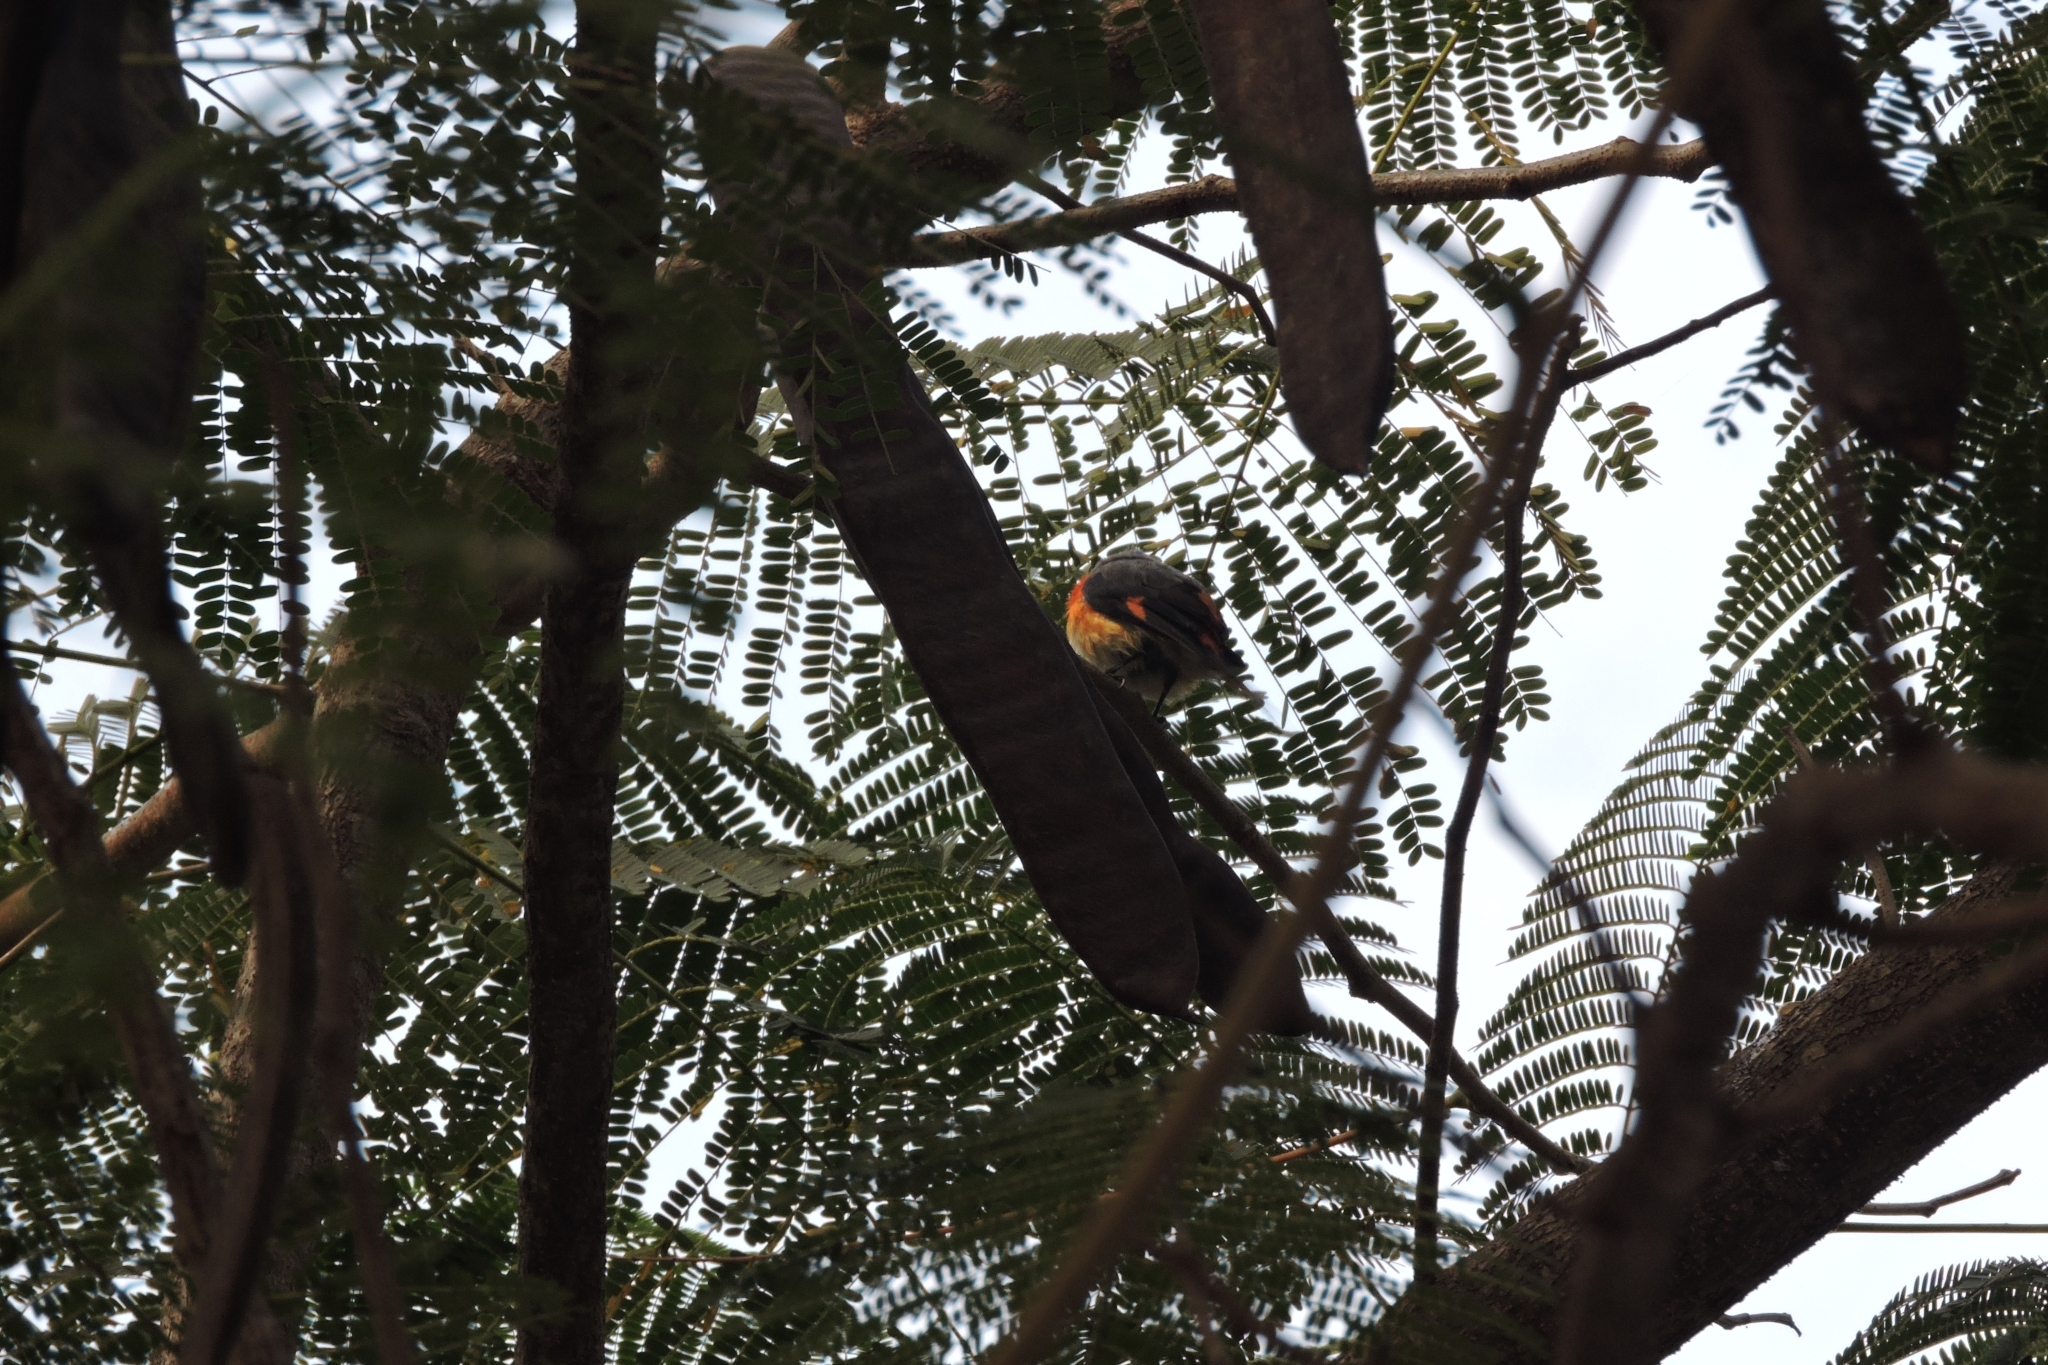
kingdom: Animalia
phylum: Chordata
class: Aves
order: Passeriformes
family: Campephagidae
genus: Pericrocotus
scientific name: Pericrocotus cinnamomeus
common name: Small minivet
